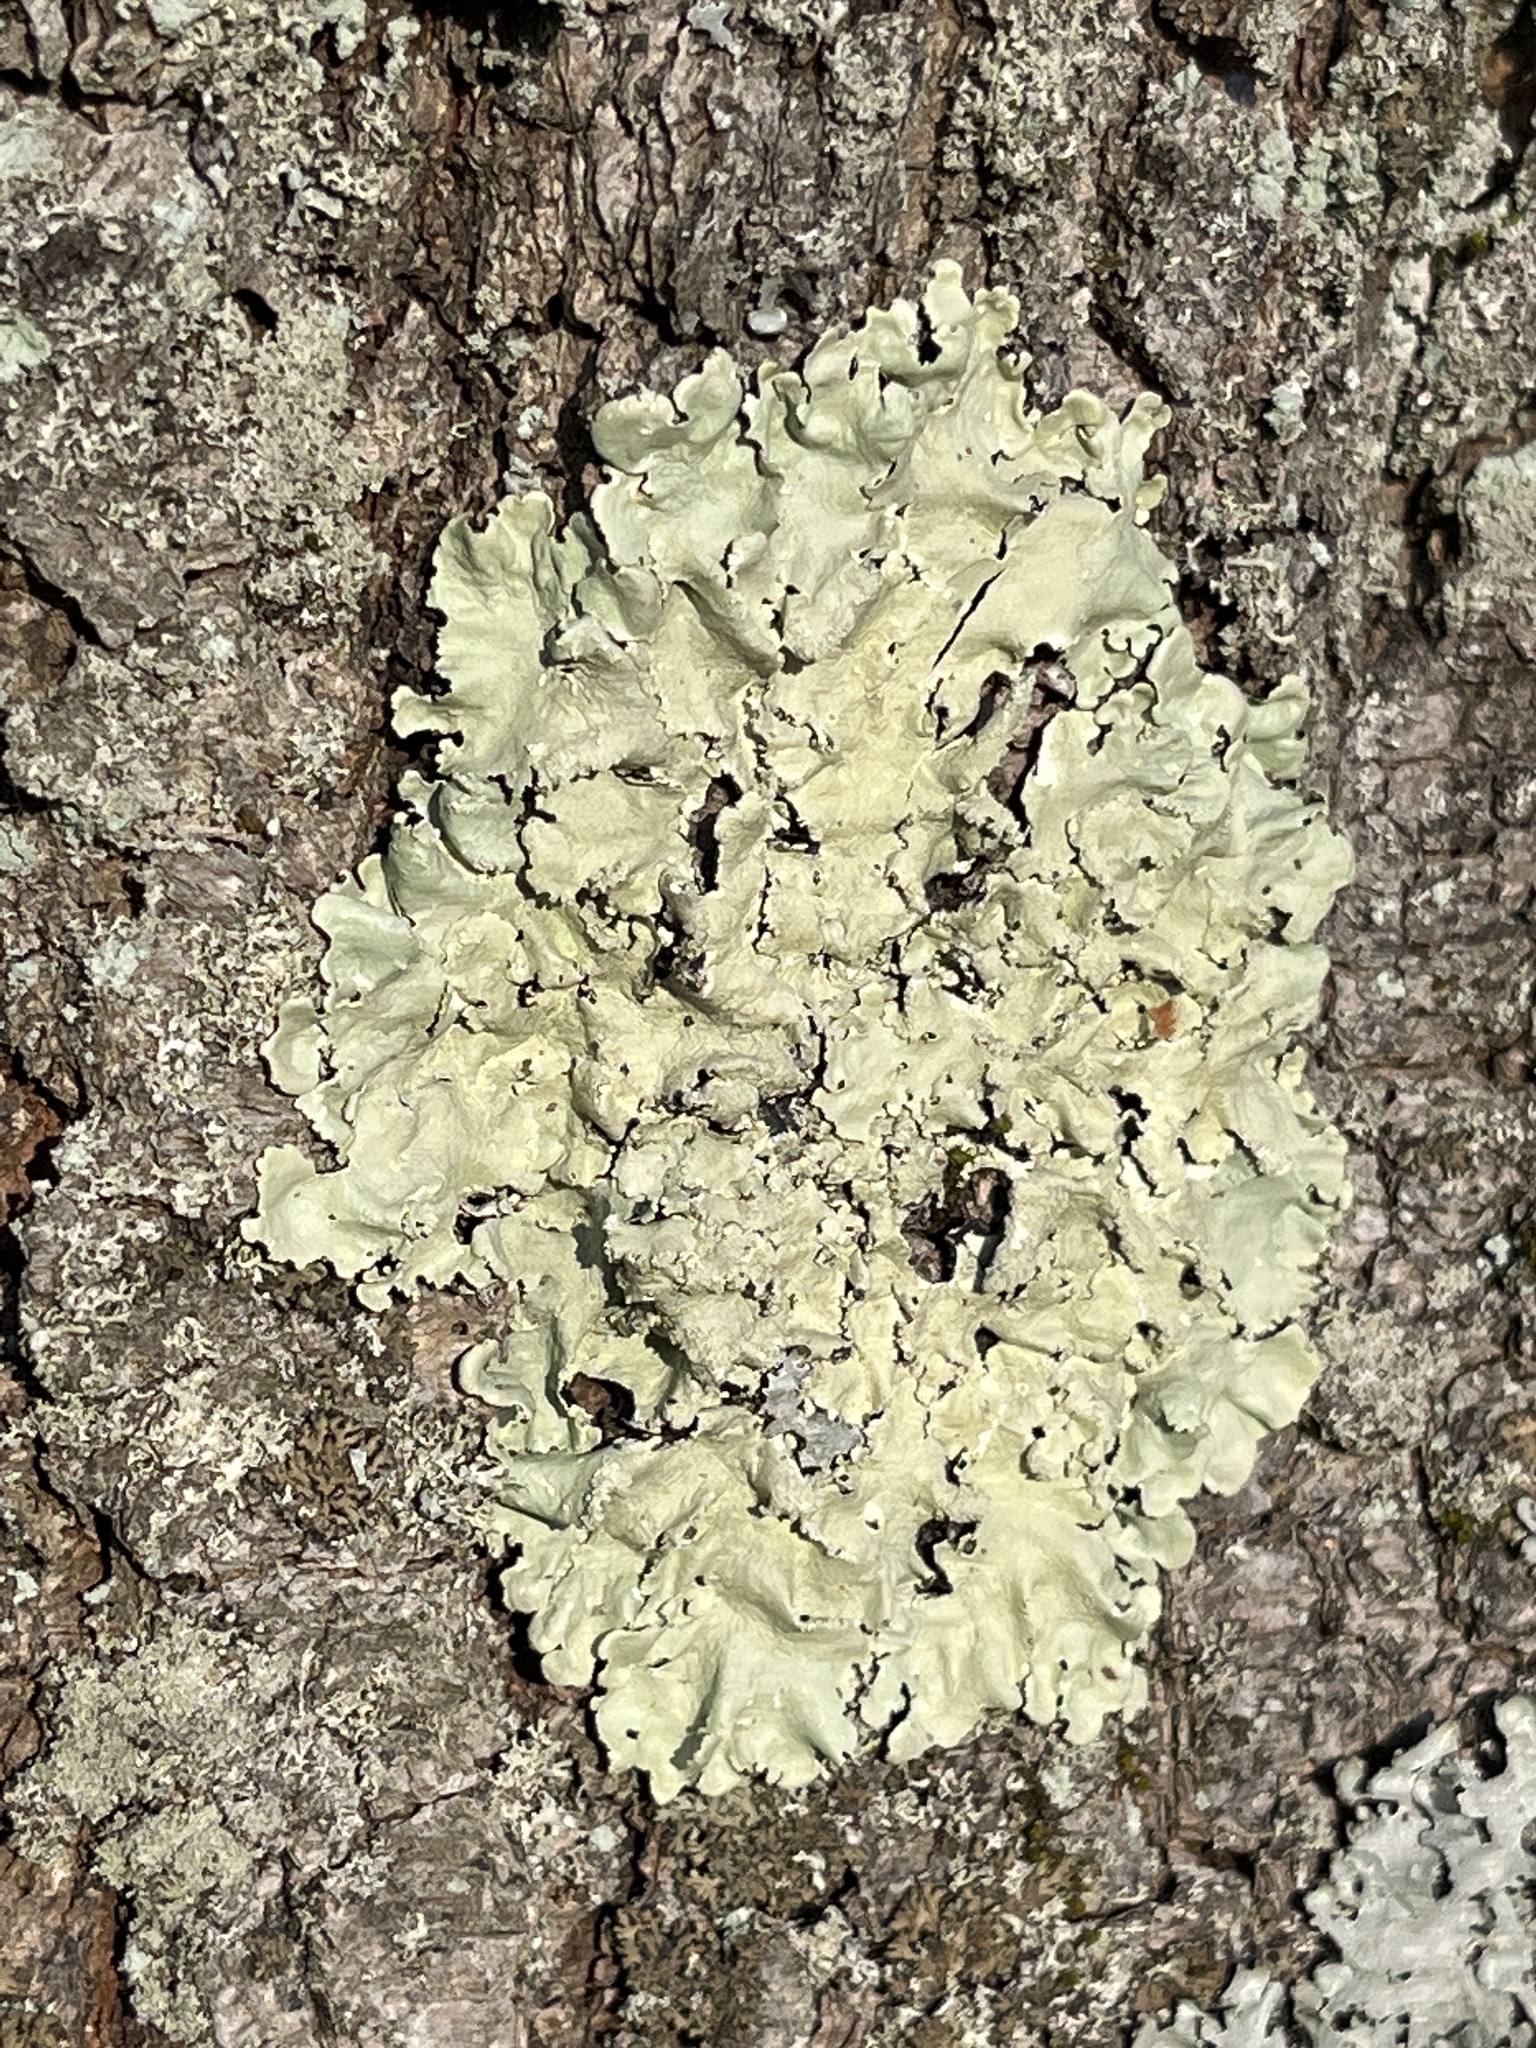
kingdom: Fungi
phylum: Ascomycota
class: Lecanoromycetes
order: Lecanorales
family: Parmeliaceae
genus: Flavoparmelia
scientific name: Flavoparmelia caperata
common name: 40-mile per hour lichen
